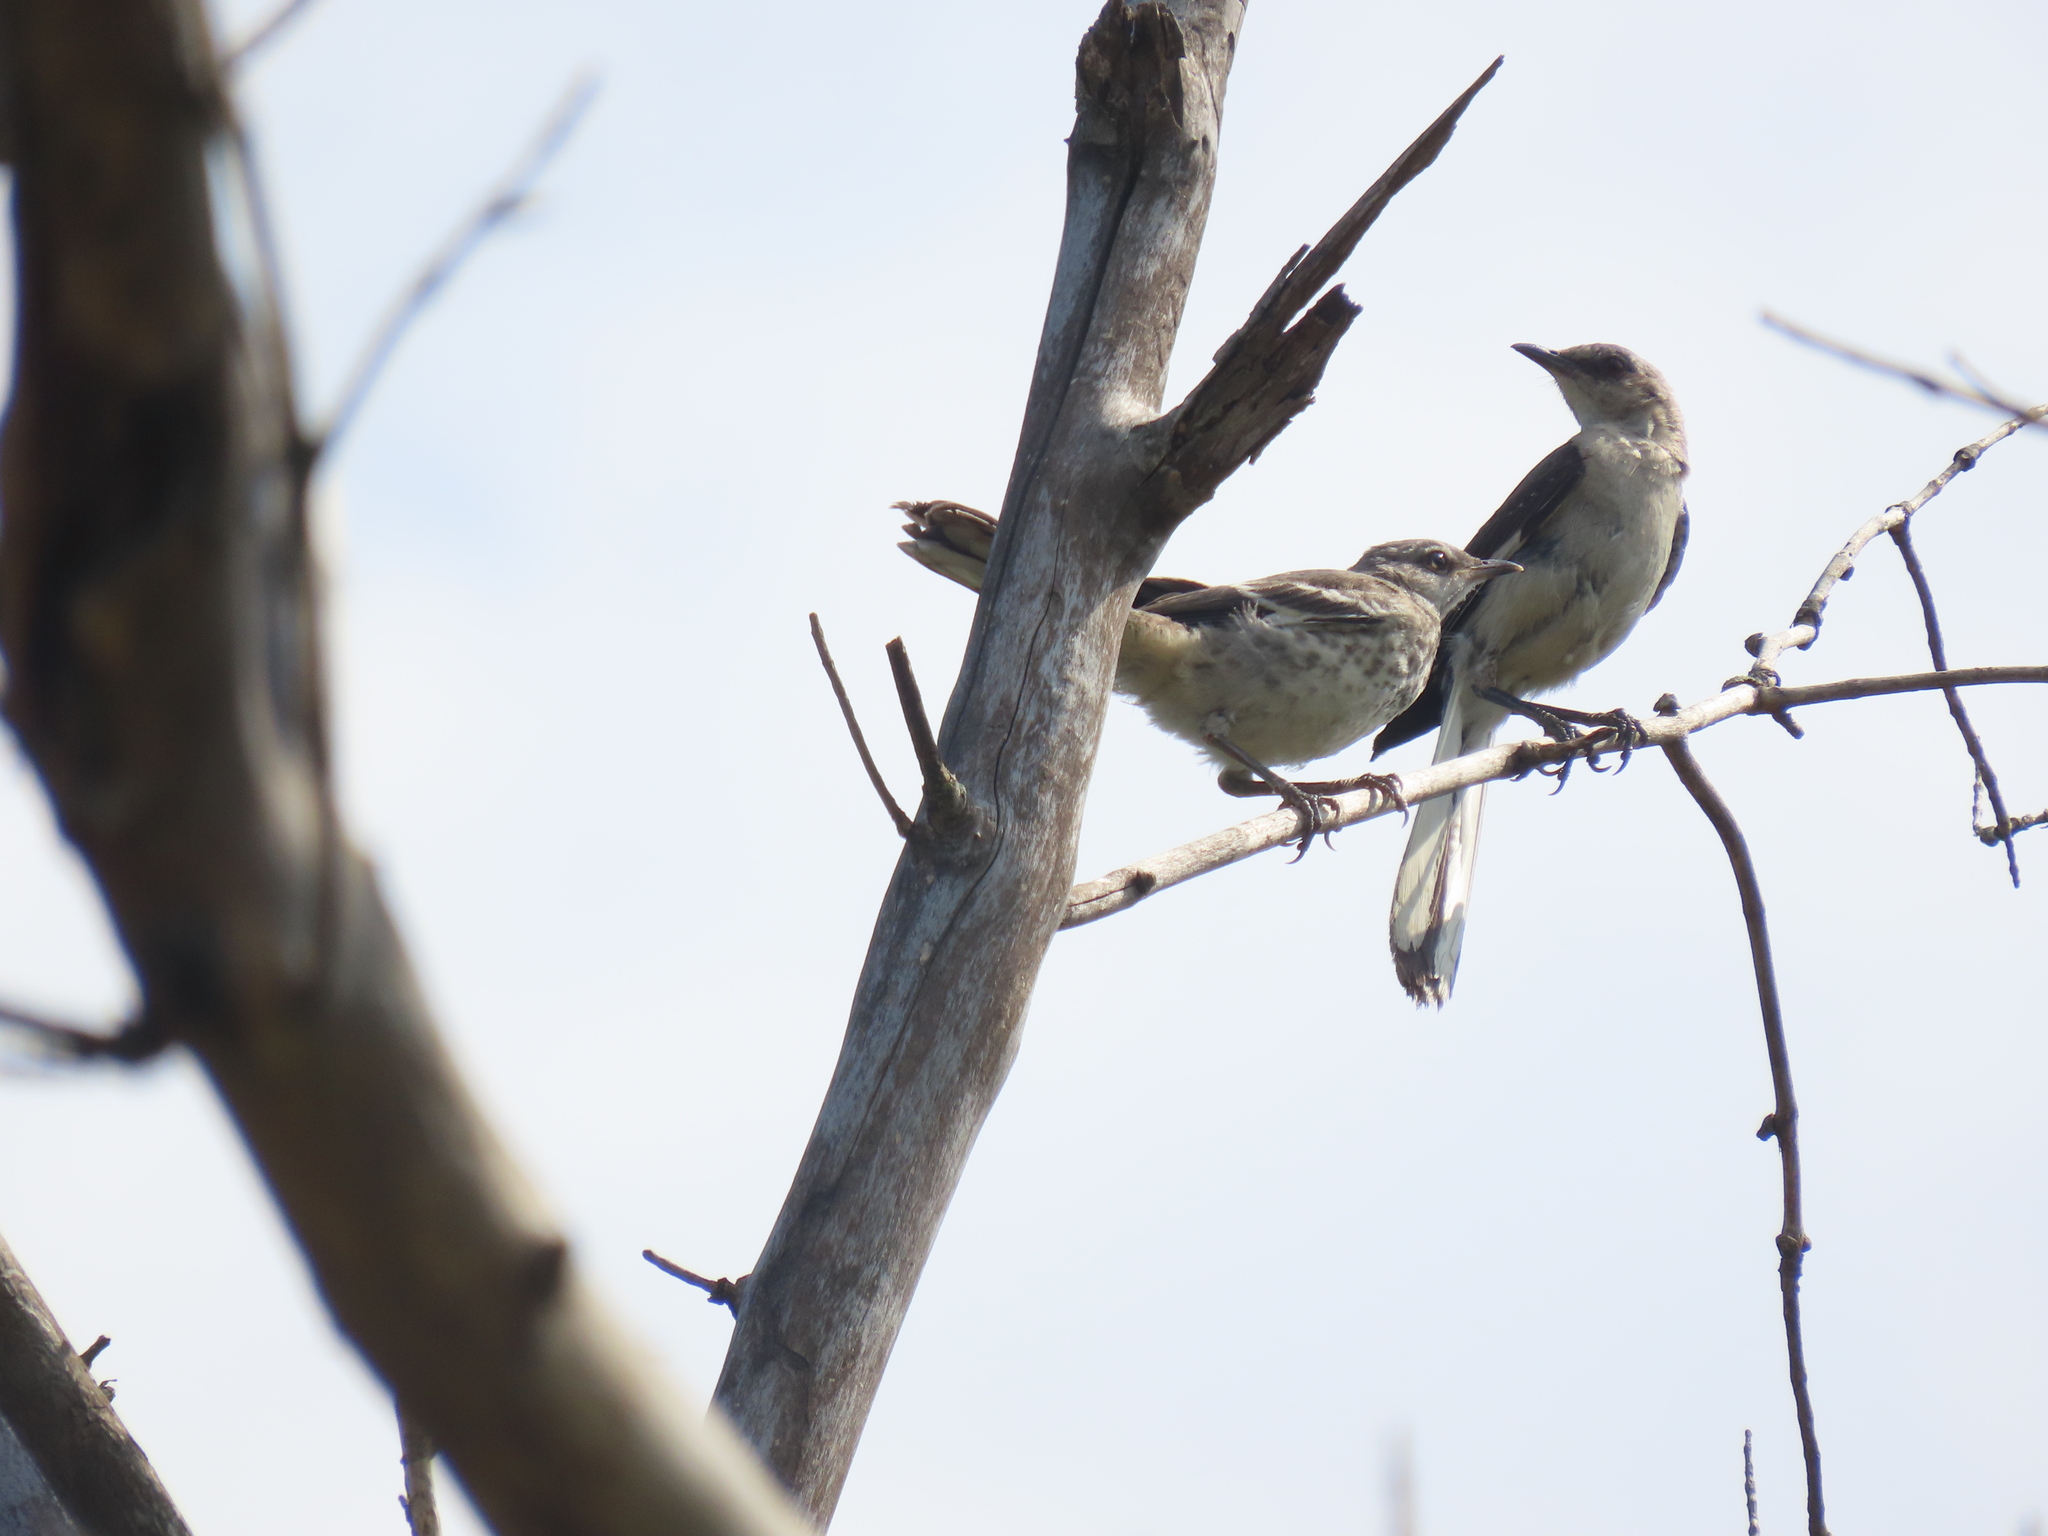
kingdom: Animalia
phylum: Chordata
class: Aves
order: Passeriformes
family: Mimidae
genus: Mimus
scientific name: Mimus polyglottos
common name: Northern mockingbird
